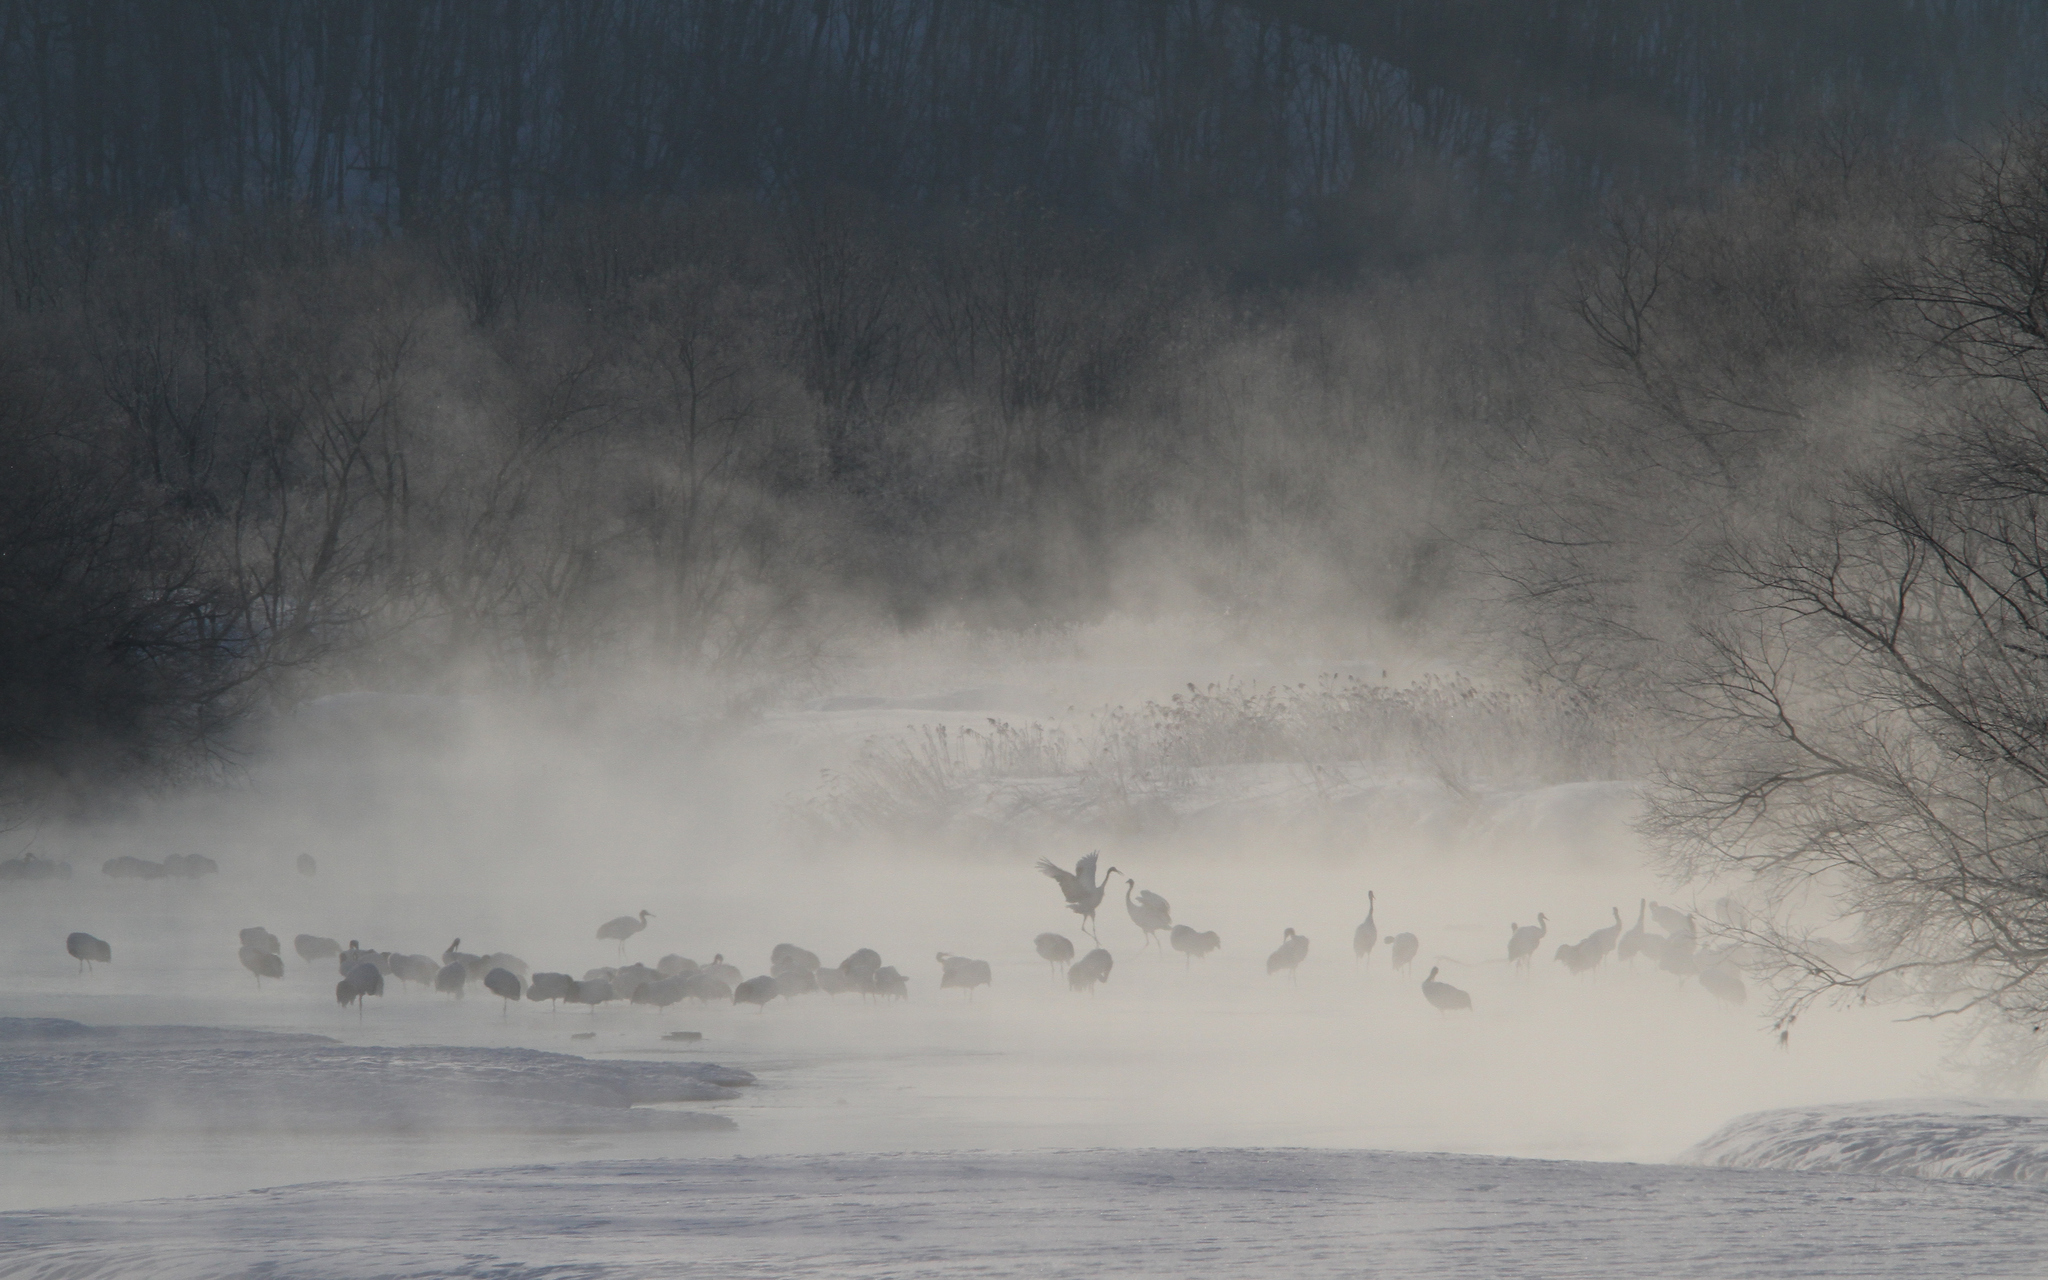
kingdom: Animalia
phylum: Chordata
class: Aves
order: Gruiformes
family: Gruidae
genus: Grus
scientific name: Grus japonensis
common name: Red-crowned crane
